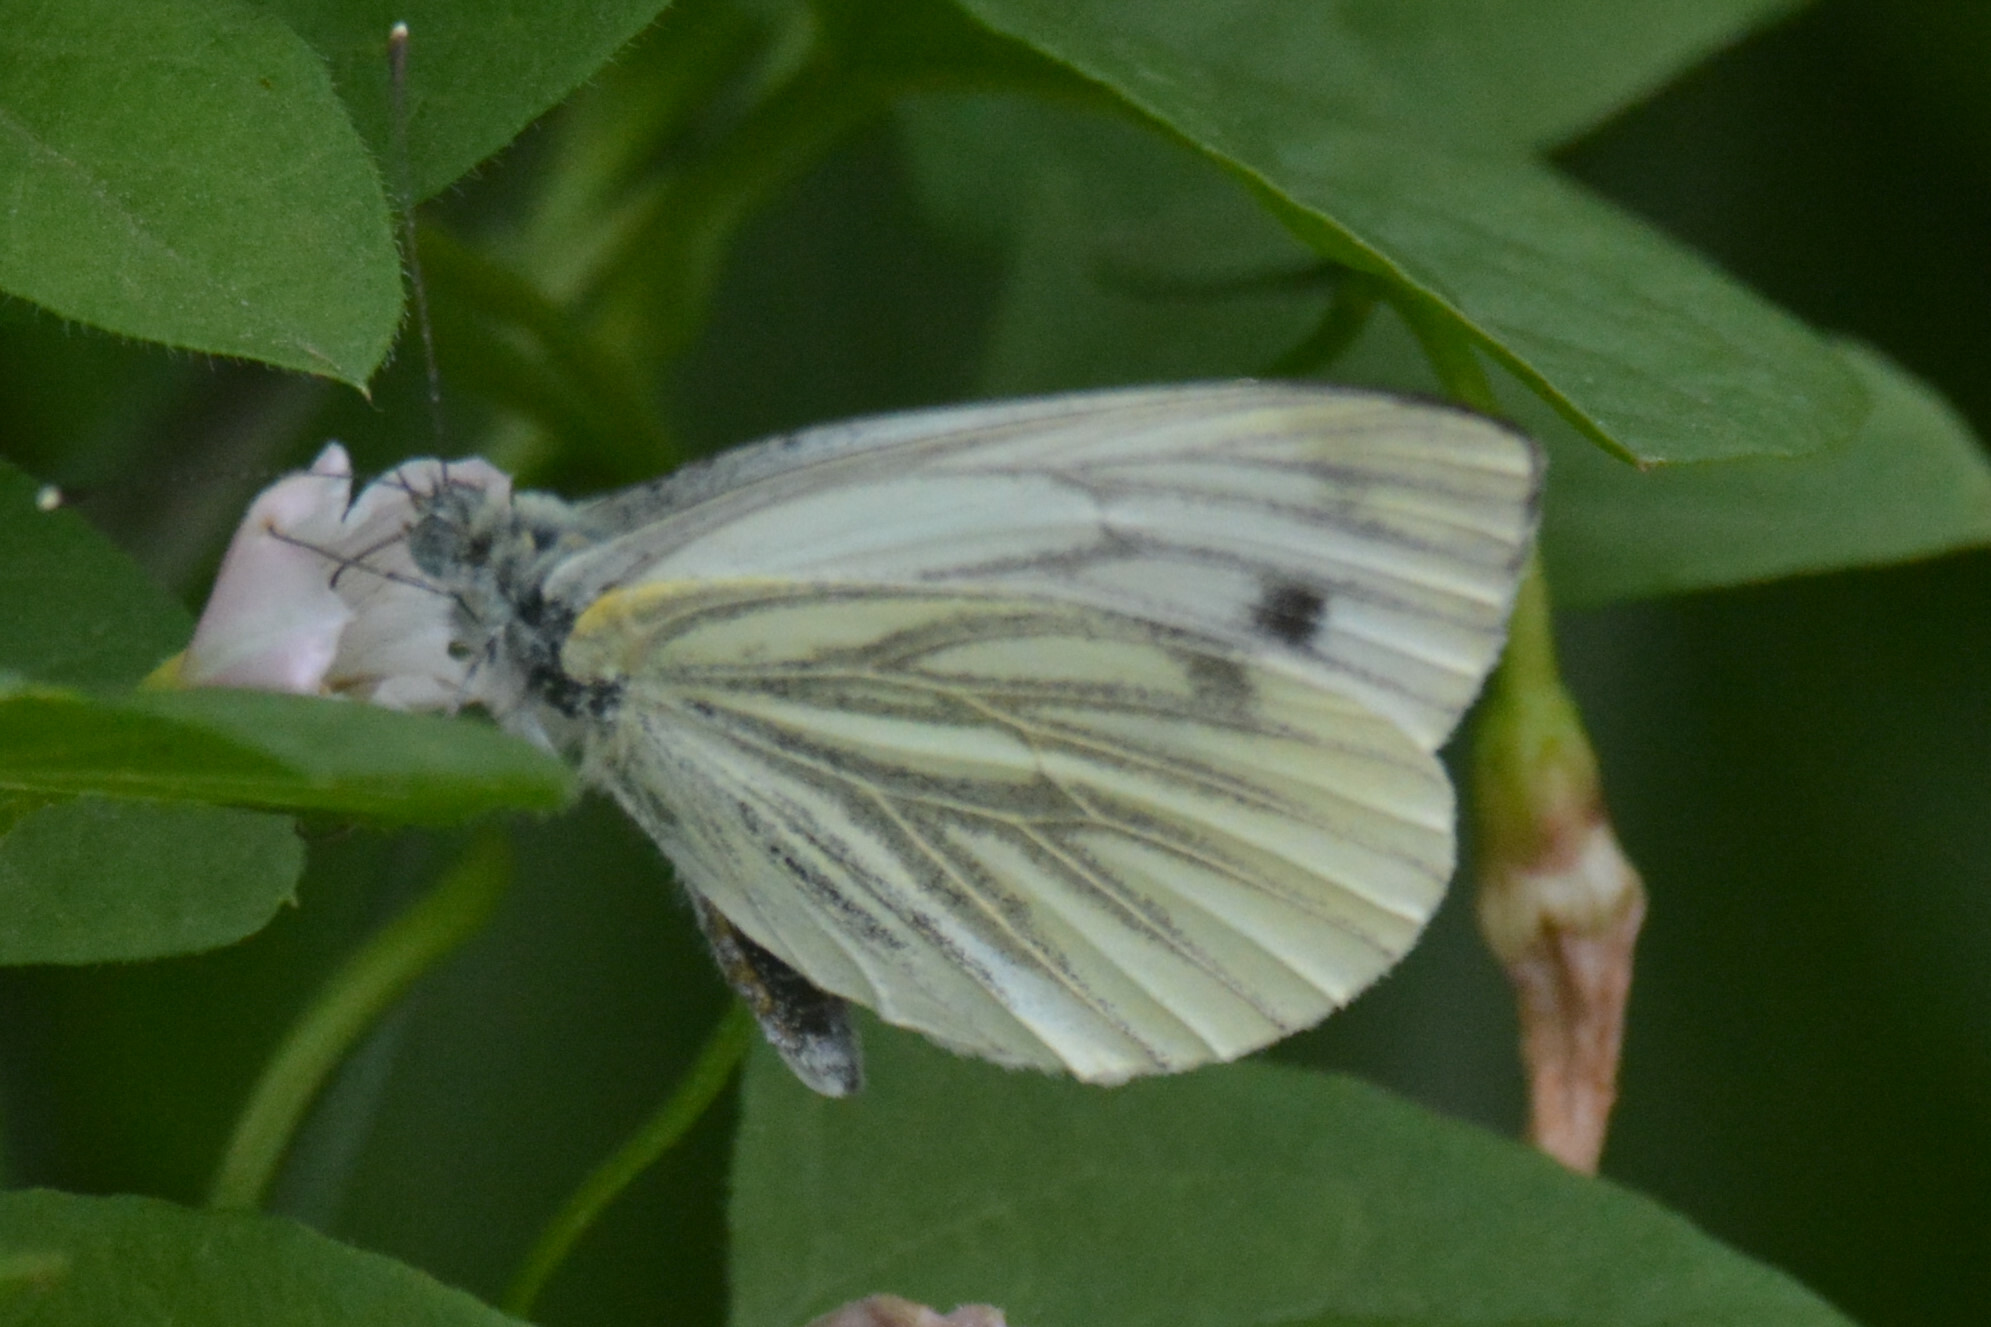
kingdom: Animalia
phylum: Arthropoda
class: Insecta
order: Lepidoptera
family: Pieridae
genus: Pieris
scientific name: Pieris napi
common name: Green-veined white
